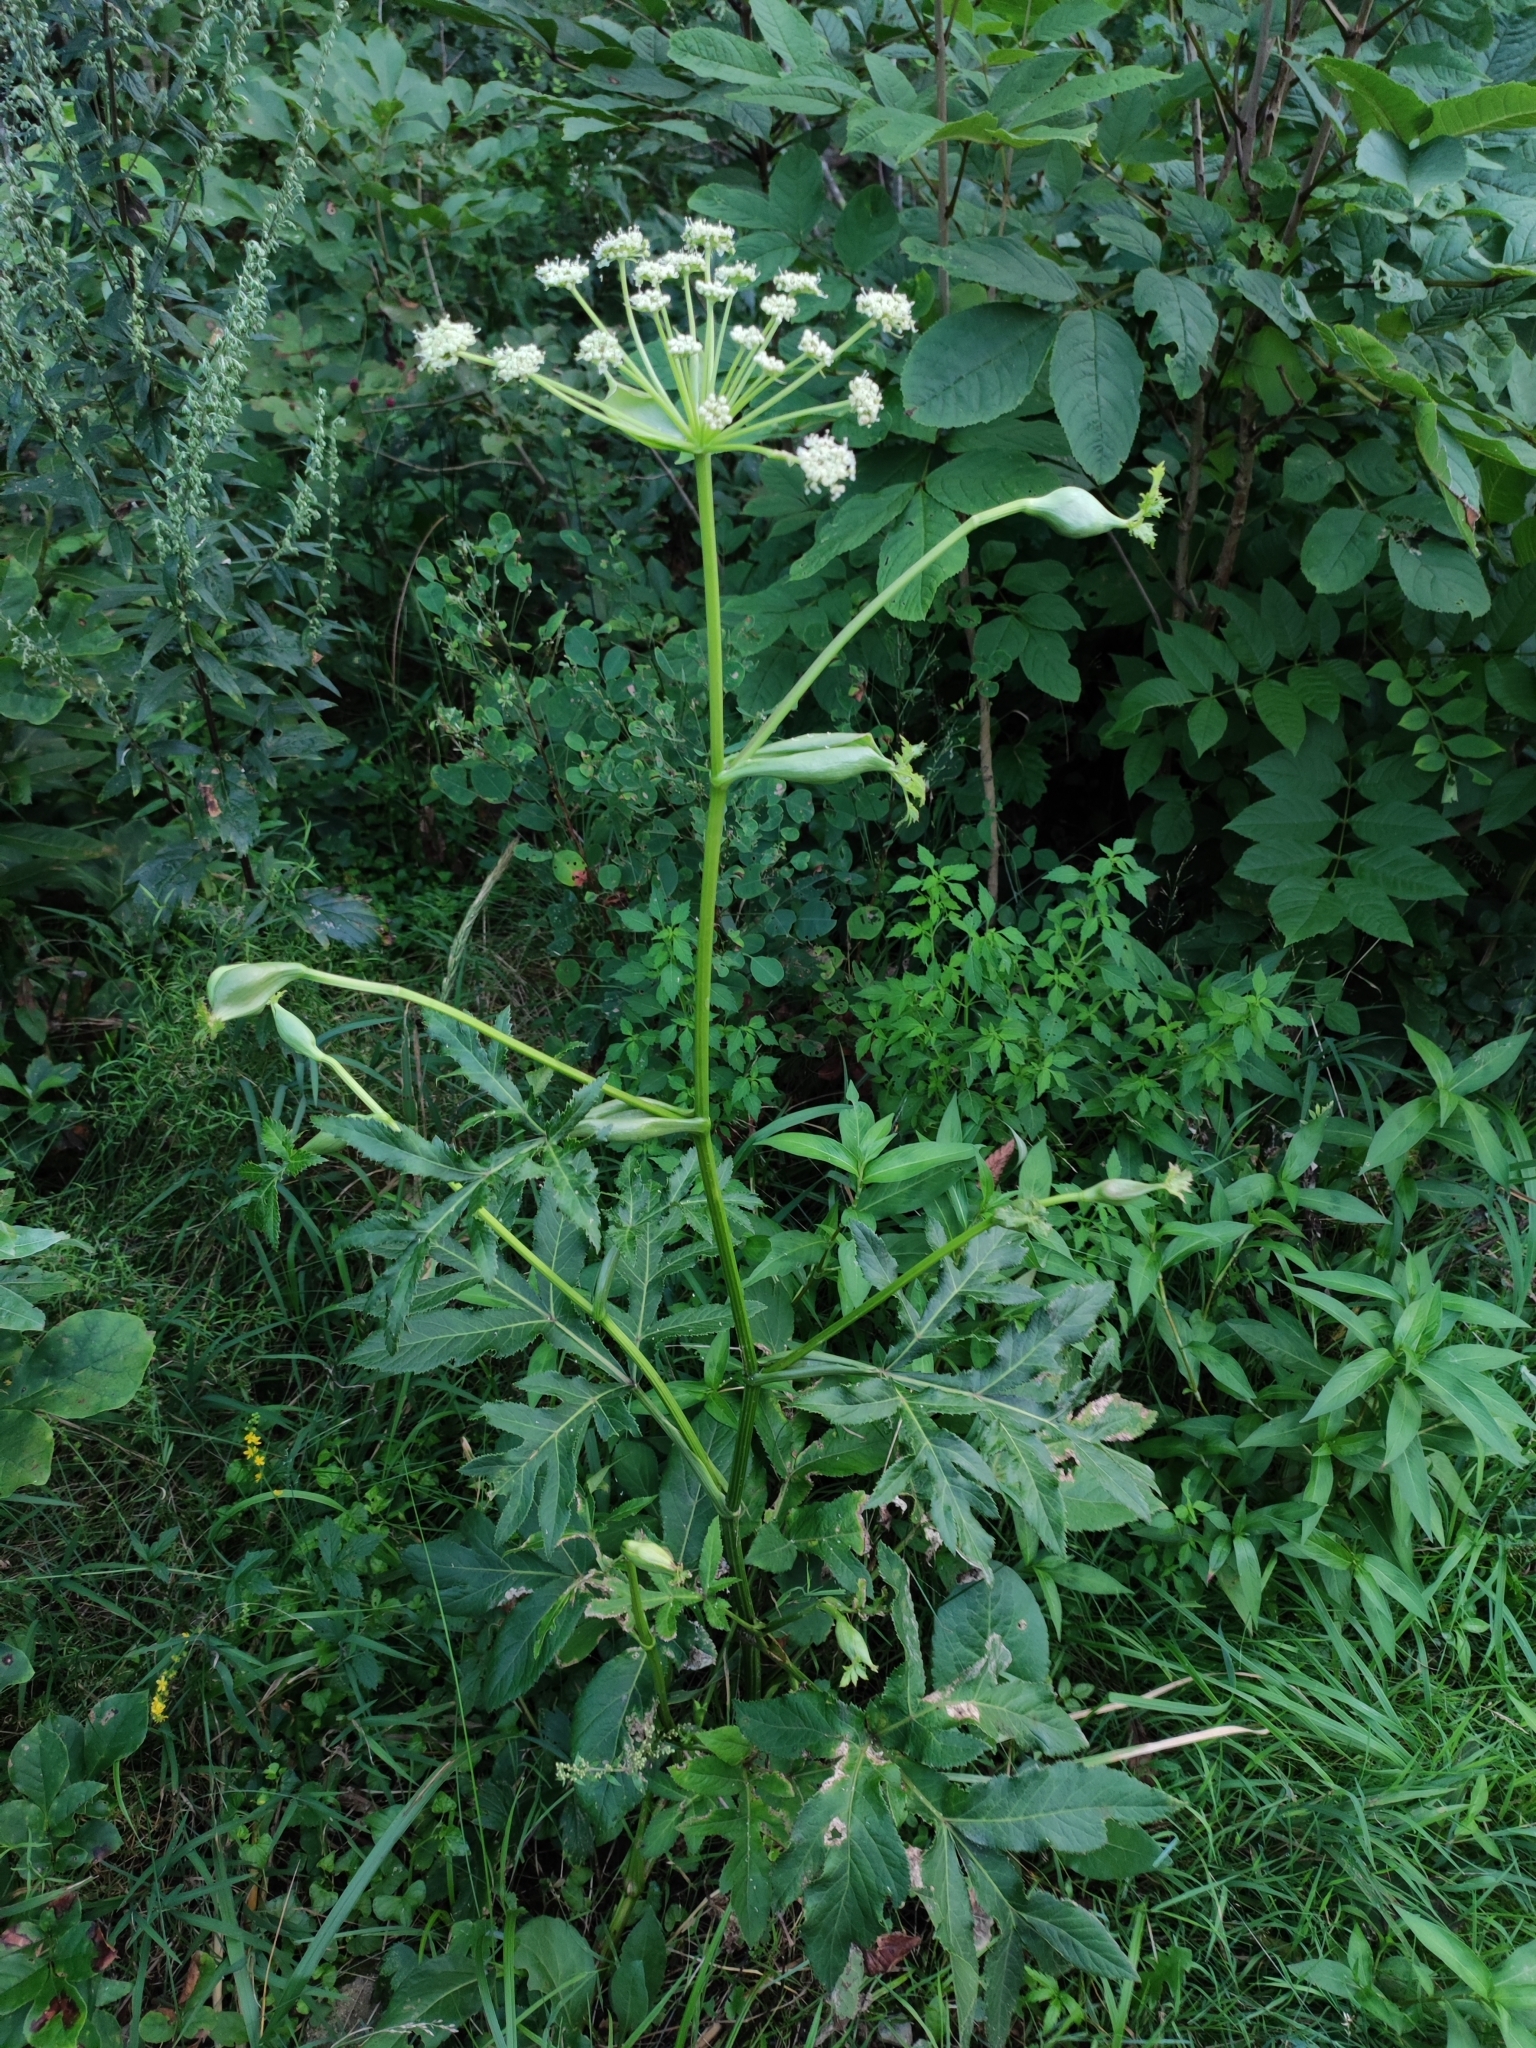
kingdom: Plantae
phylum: Tracheophyta
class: Magnoliopsida
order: Apiales
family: Apiaceae
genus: Halosciastrum
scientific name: Halosciastrum melanotilingia
